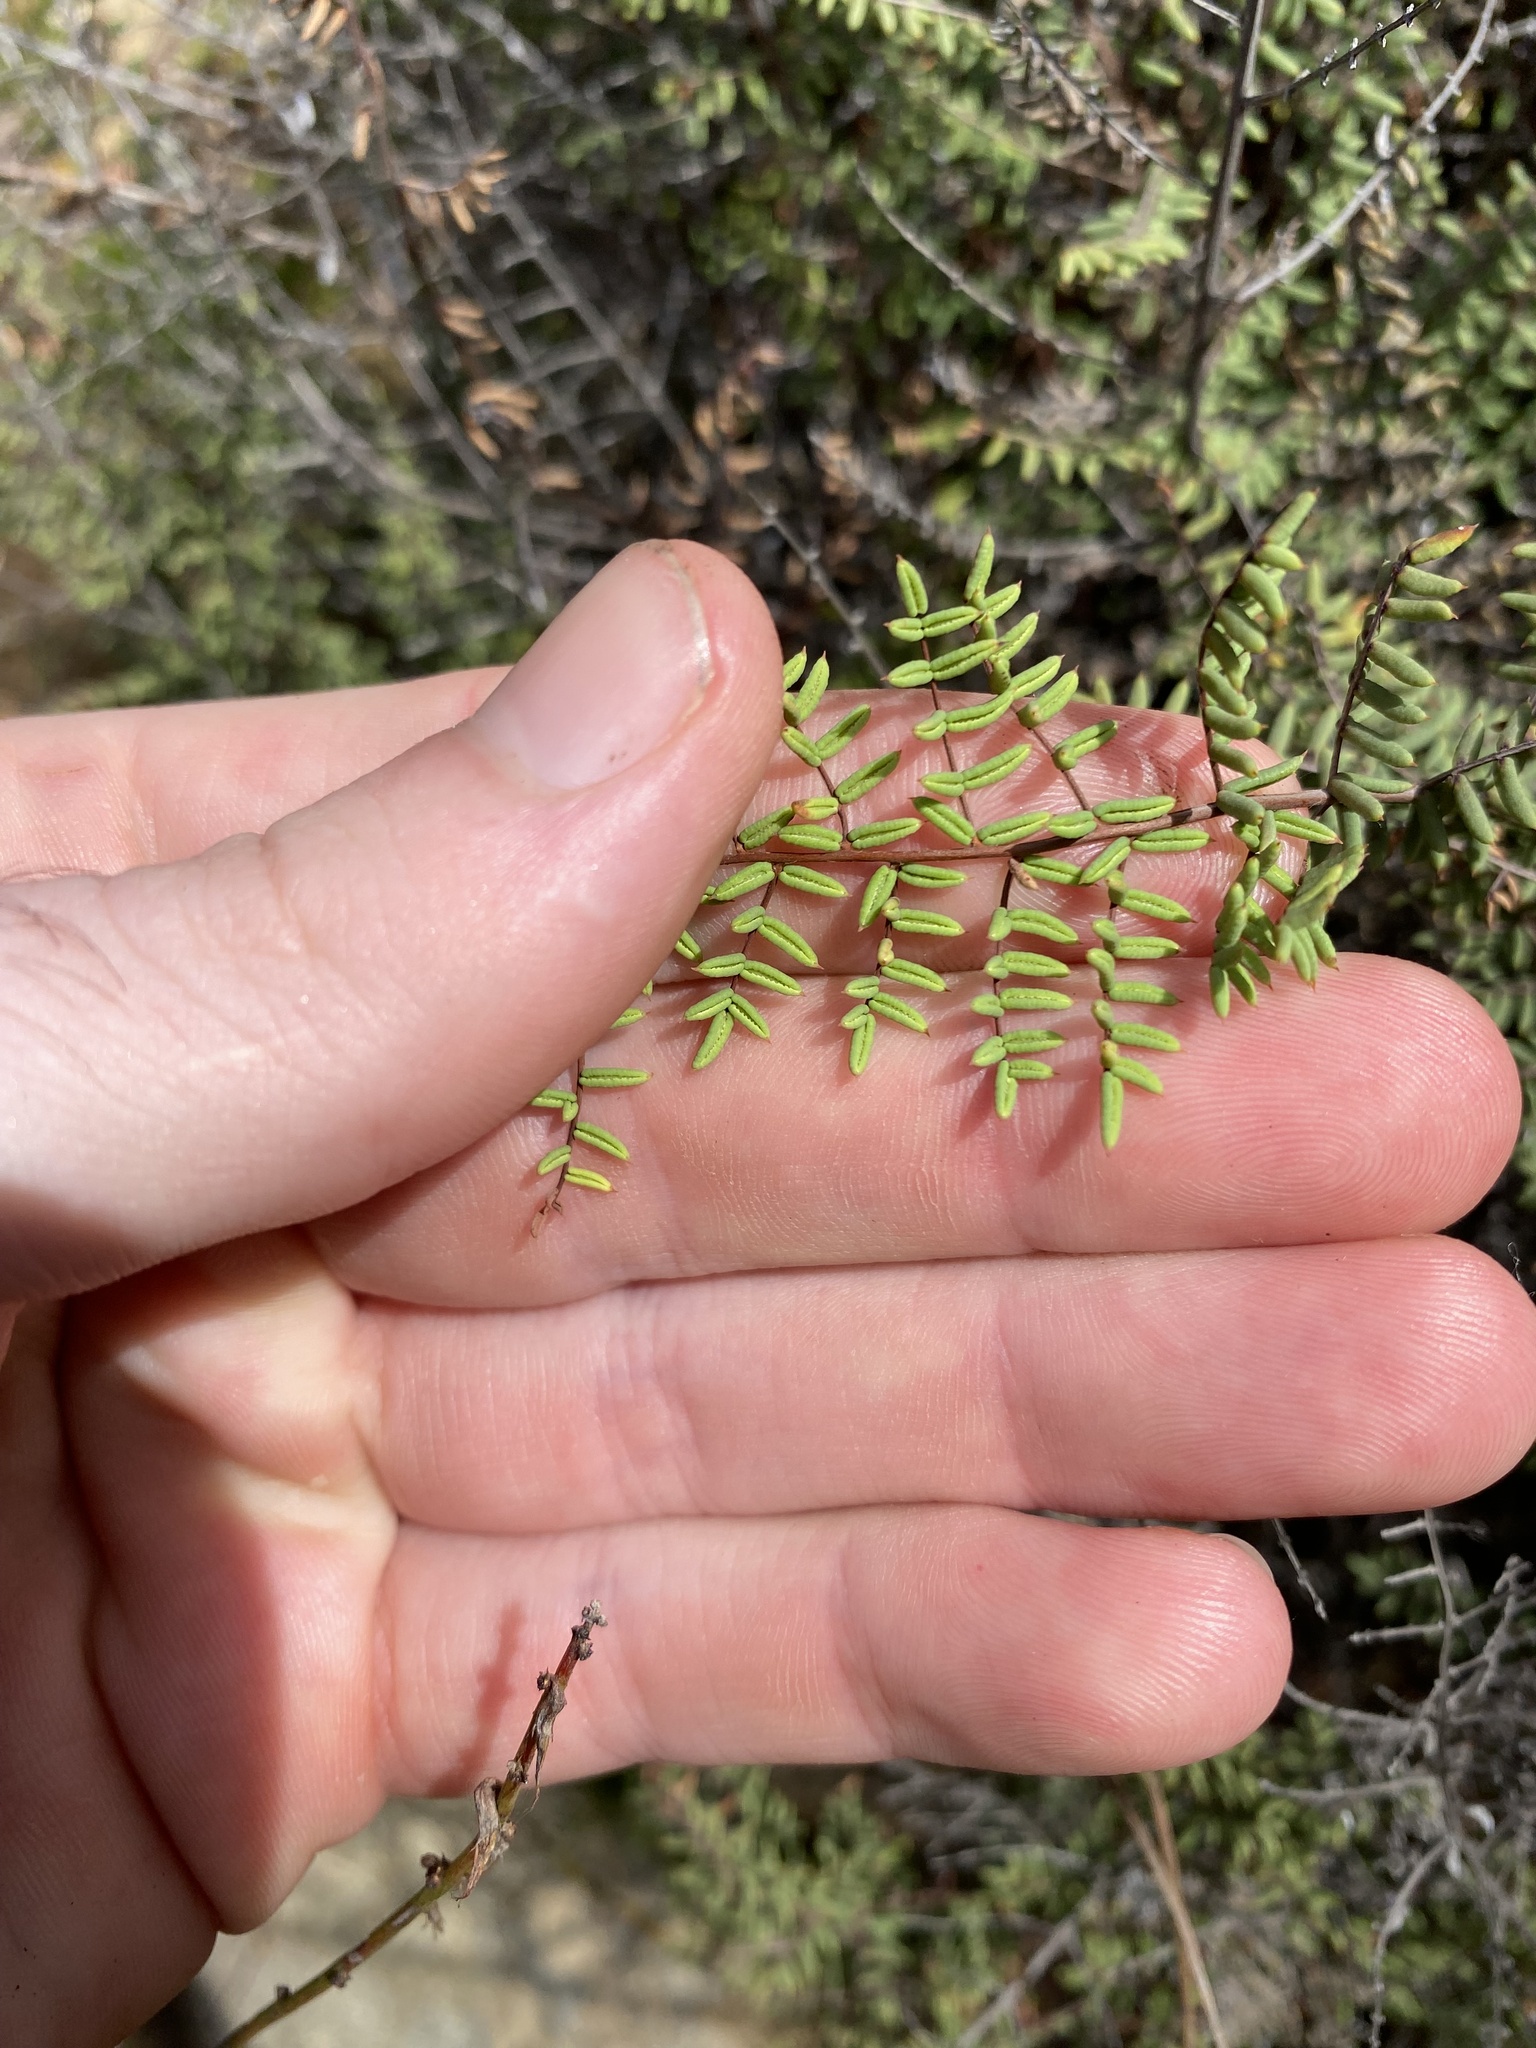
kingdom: Plantae
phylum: Tracheophyta
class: Polypodiopsida
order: Polypodiales
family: Pteridaceae
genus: Pellaea
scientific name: Pellaea mucronata
